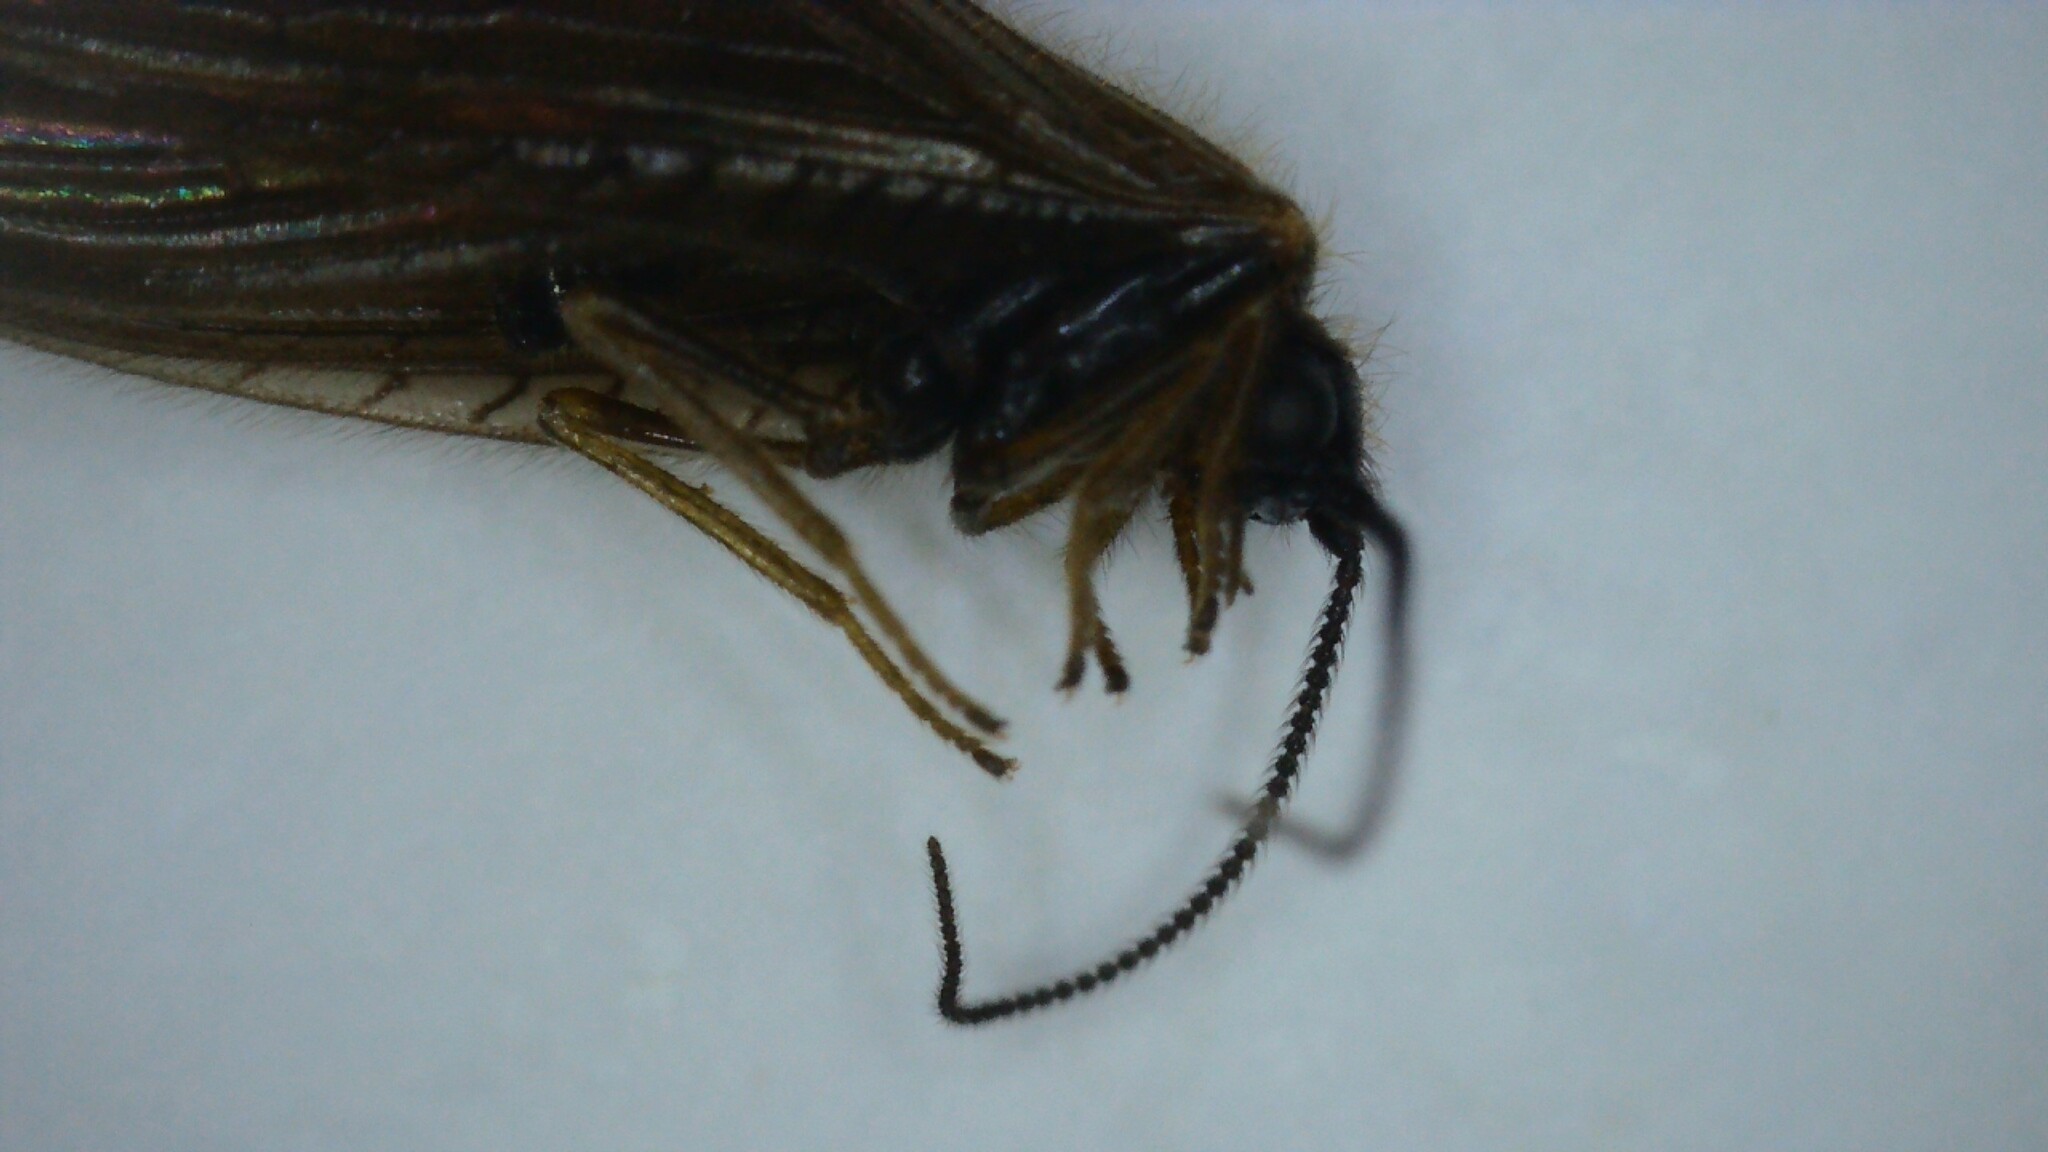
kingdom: Animalia
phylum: Arthropoda
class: Insecta
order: Neuroptera
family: Sisyridae
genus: Sisyra
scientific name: Sisyra nigra
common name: Black spongillafly
